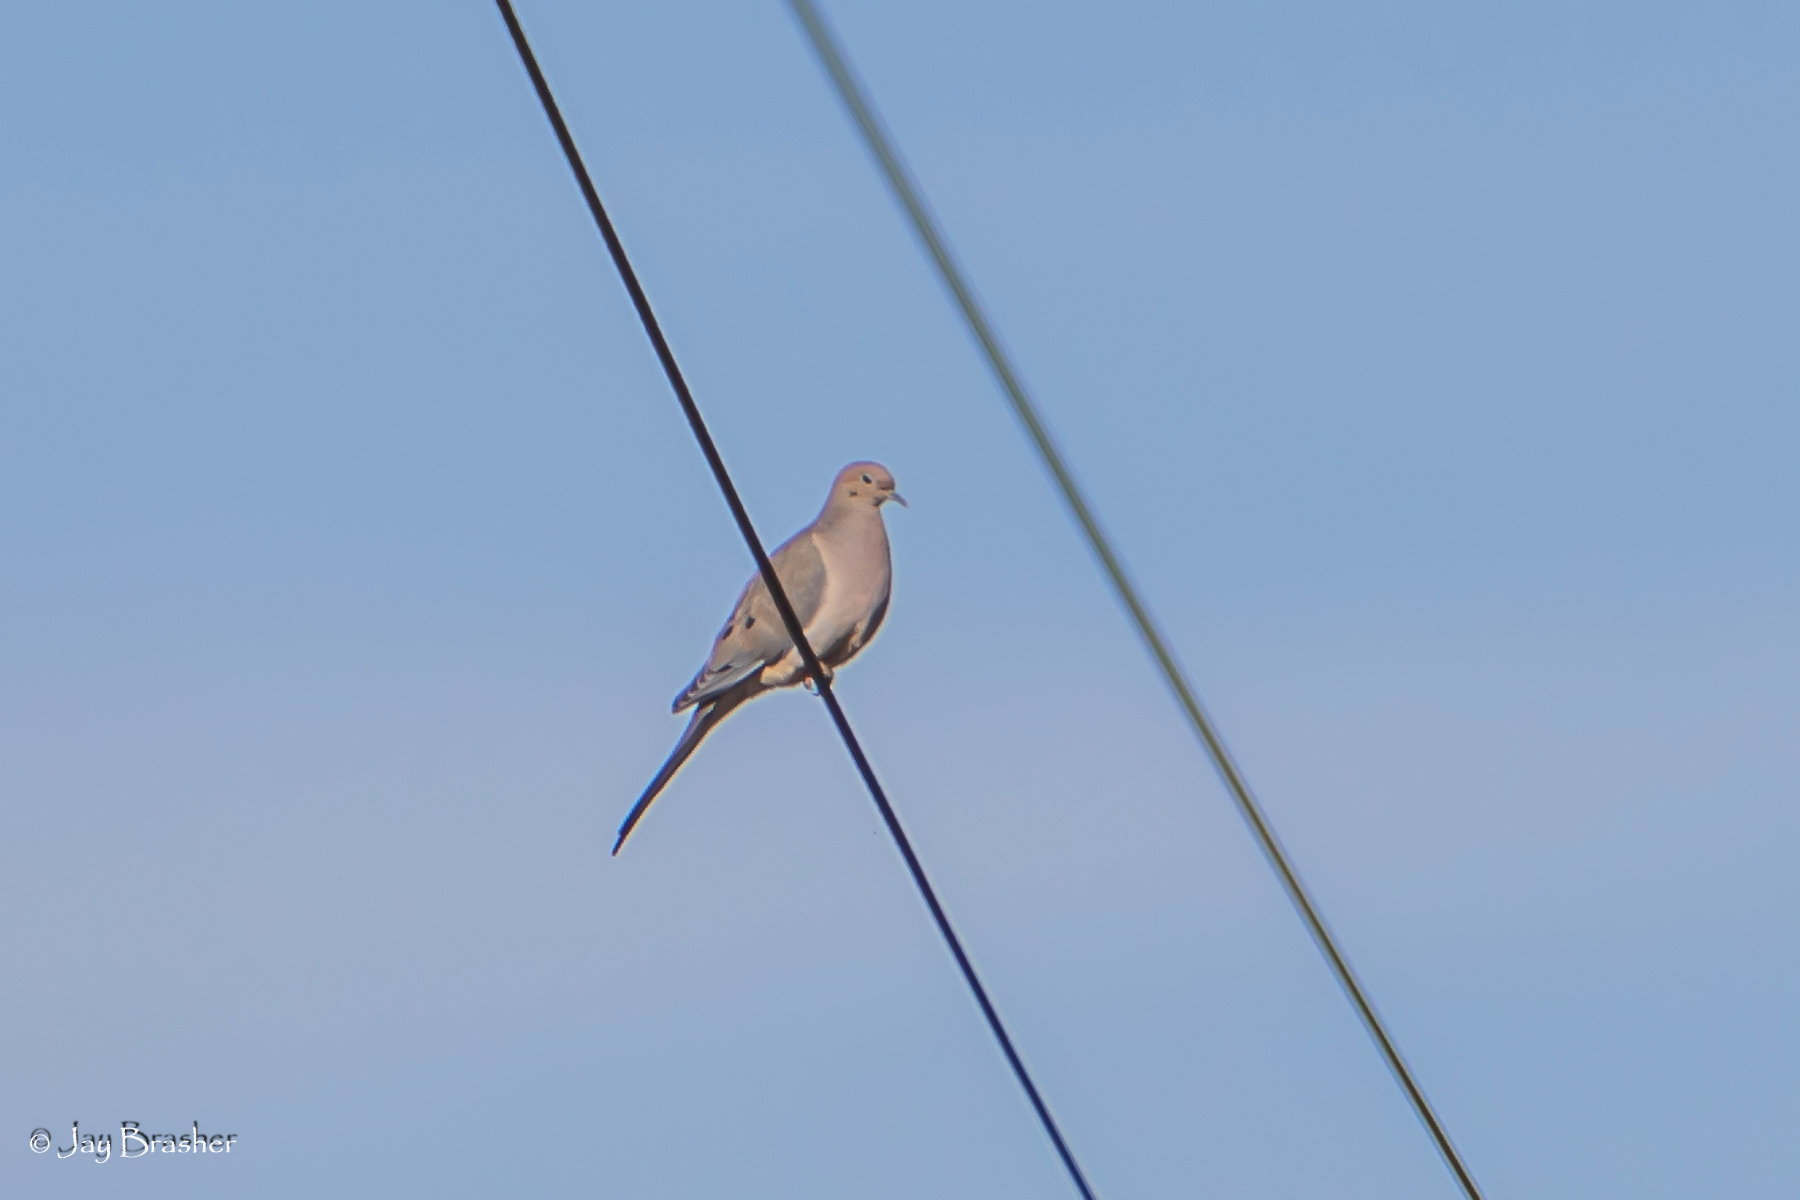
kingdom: Animalia
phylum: Chordata
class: Aves
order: Columbiformes
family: Columbidae
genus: Zenaida
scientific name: Zenaida macroura
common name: Mourning dove
